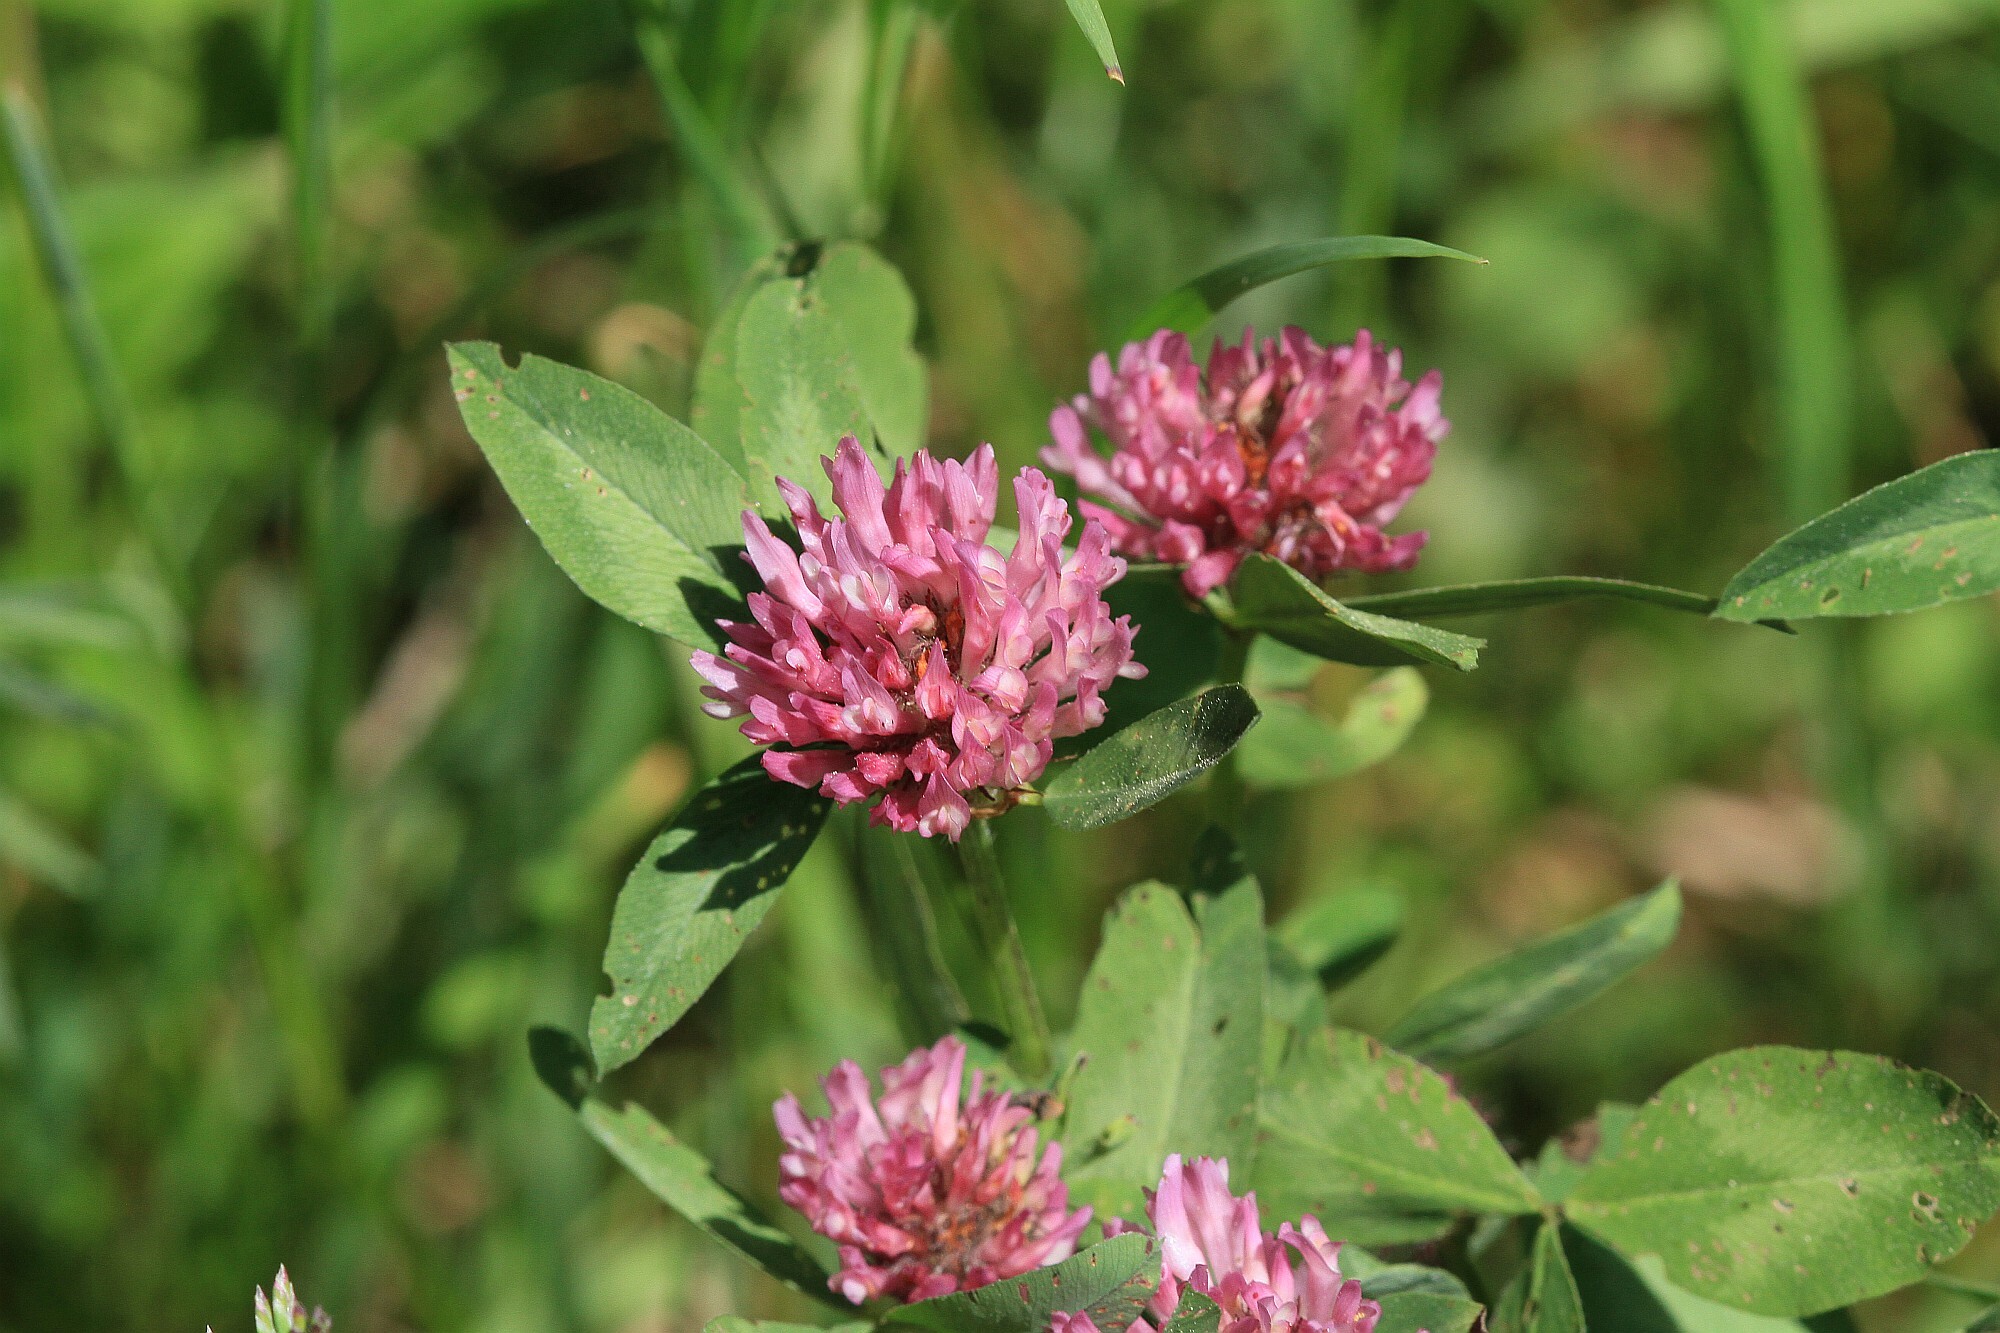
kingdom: Plantae
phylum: Tracheophyta
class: Magnoliopsida
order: Fabales
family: Fabaceae
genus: Trifolium
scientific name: Trifolium pratense
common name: Red clover
